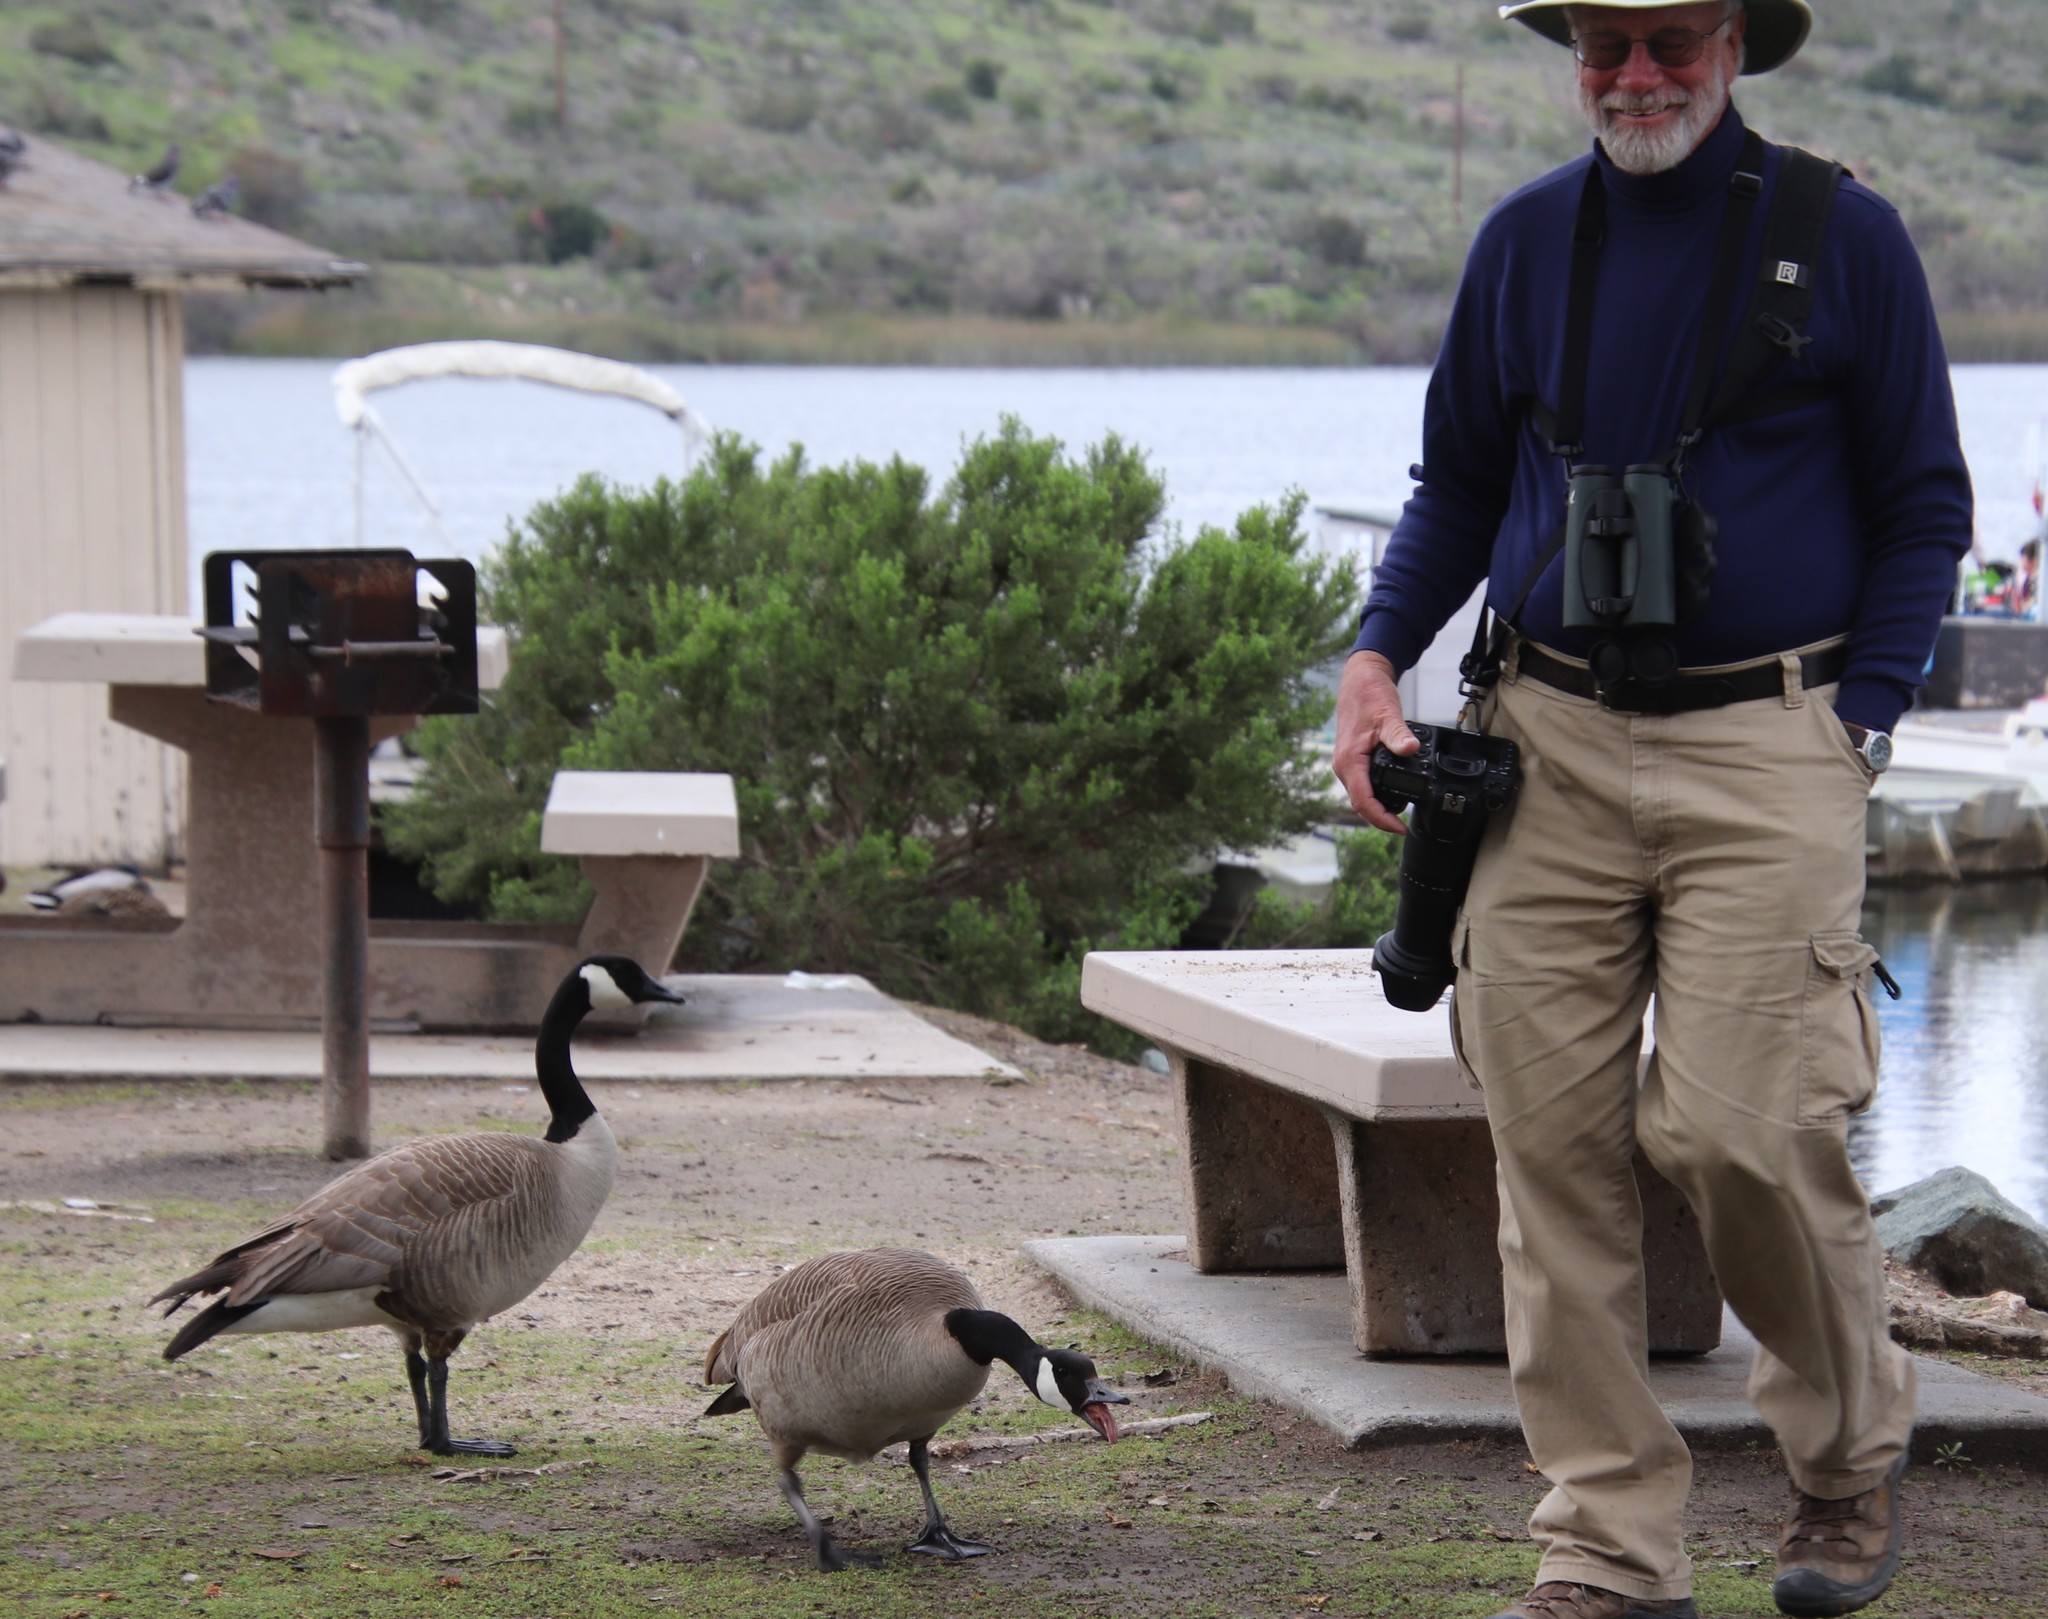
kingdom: Animalia
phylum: Chordata
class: Aves
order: Anseriformes
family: Anatidae
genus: Branta
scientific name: Branta canadensis
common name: Canada goose
